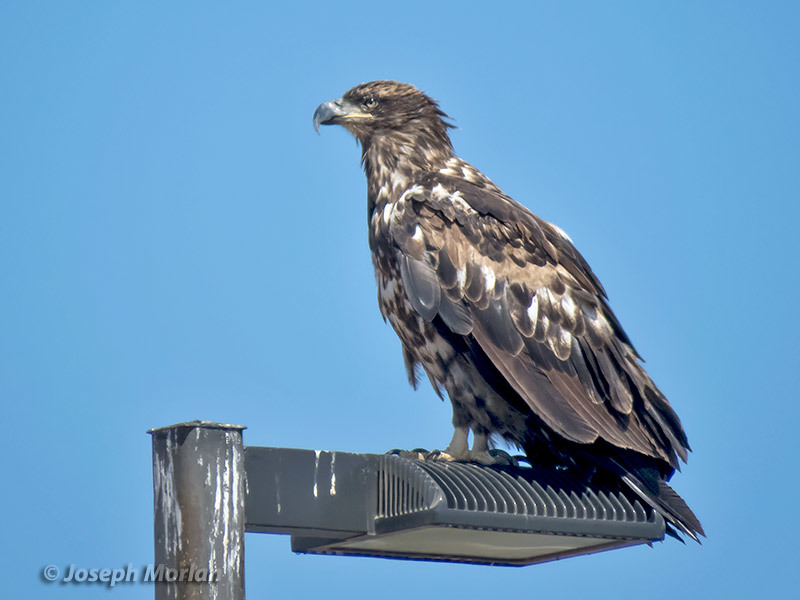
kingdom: Animalia
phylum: Chordata
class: Aves
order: Accipitriformes
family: Accipitridae
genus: Haliaeetus
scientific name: Haliaeetus leucocephalus
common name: Bald eagle
